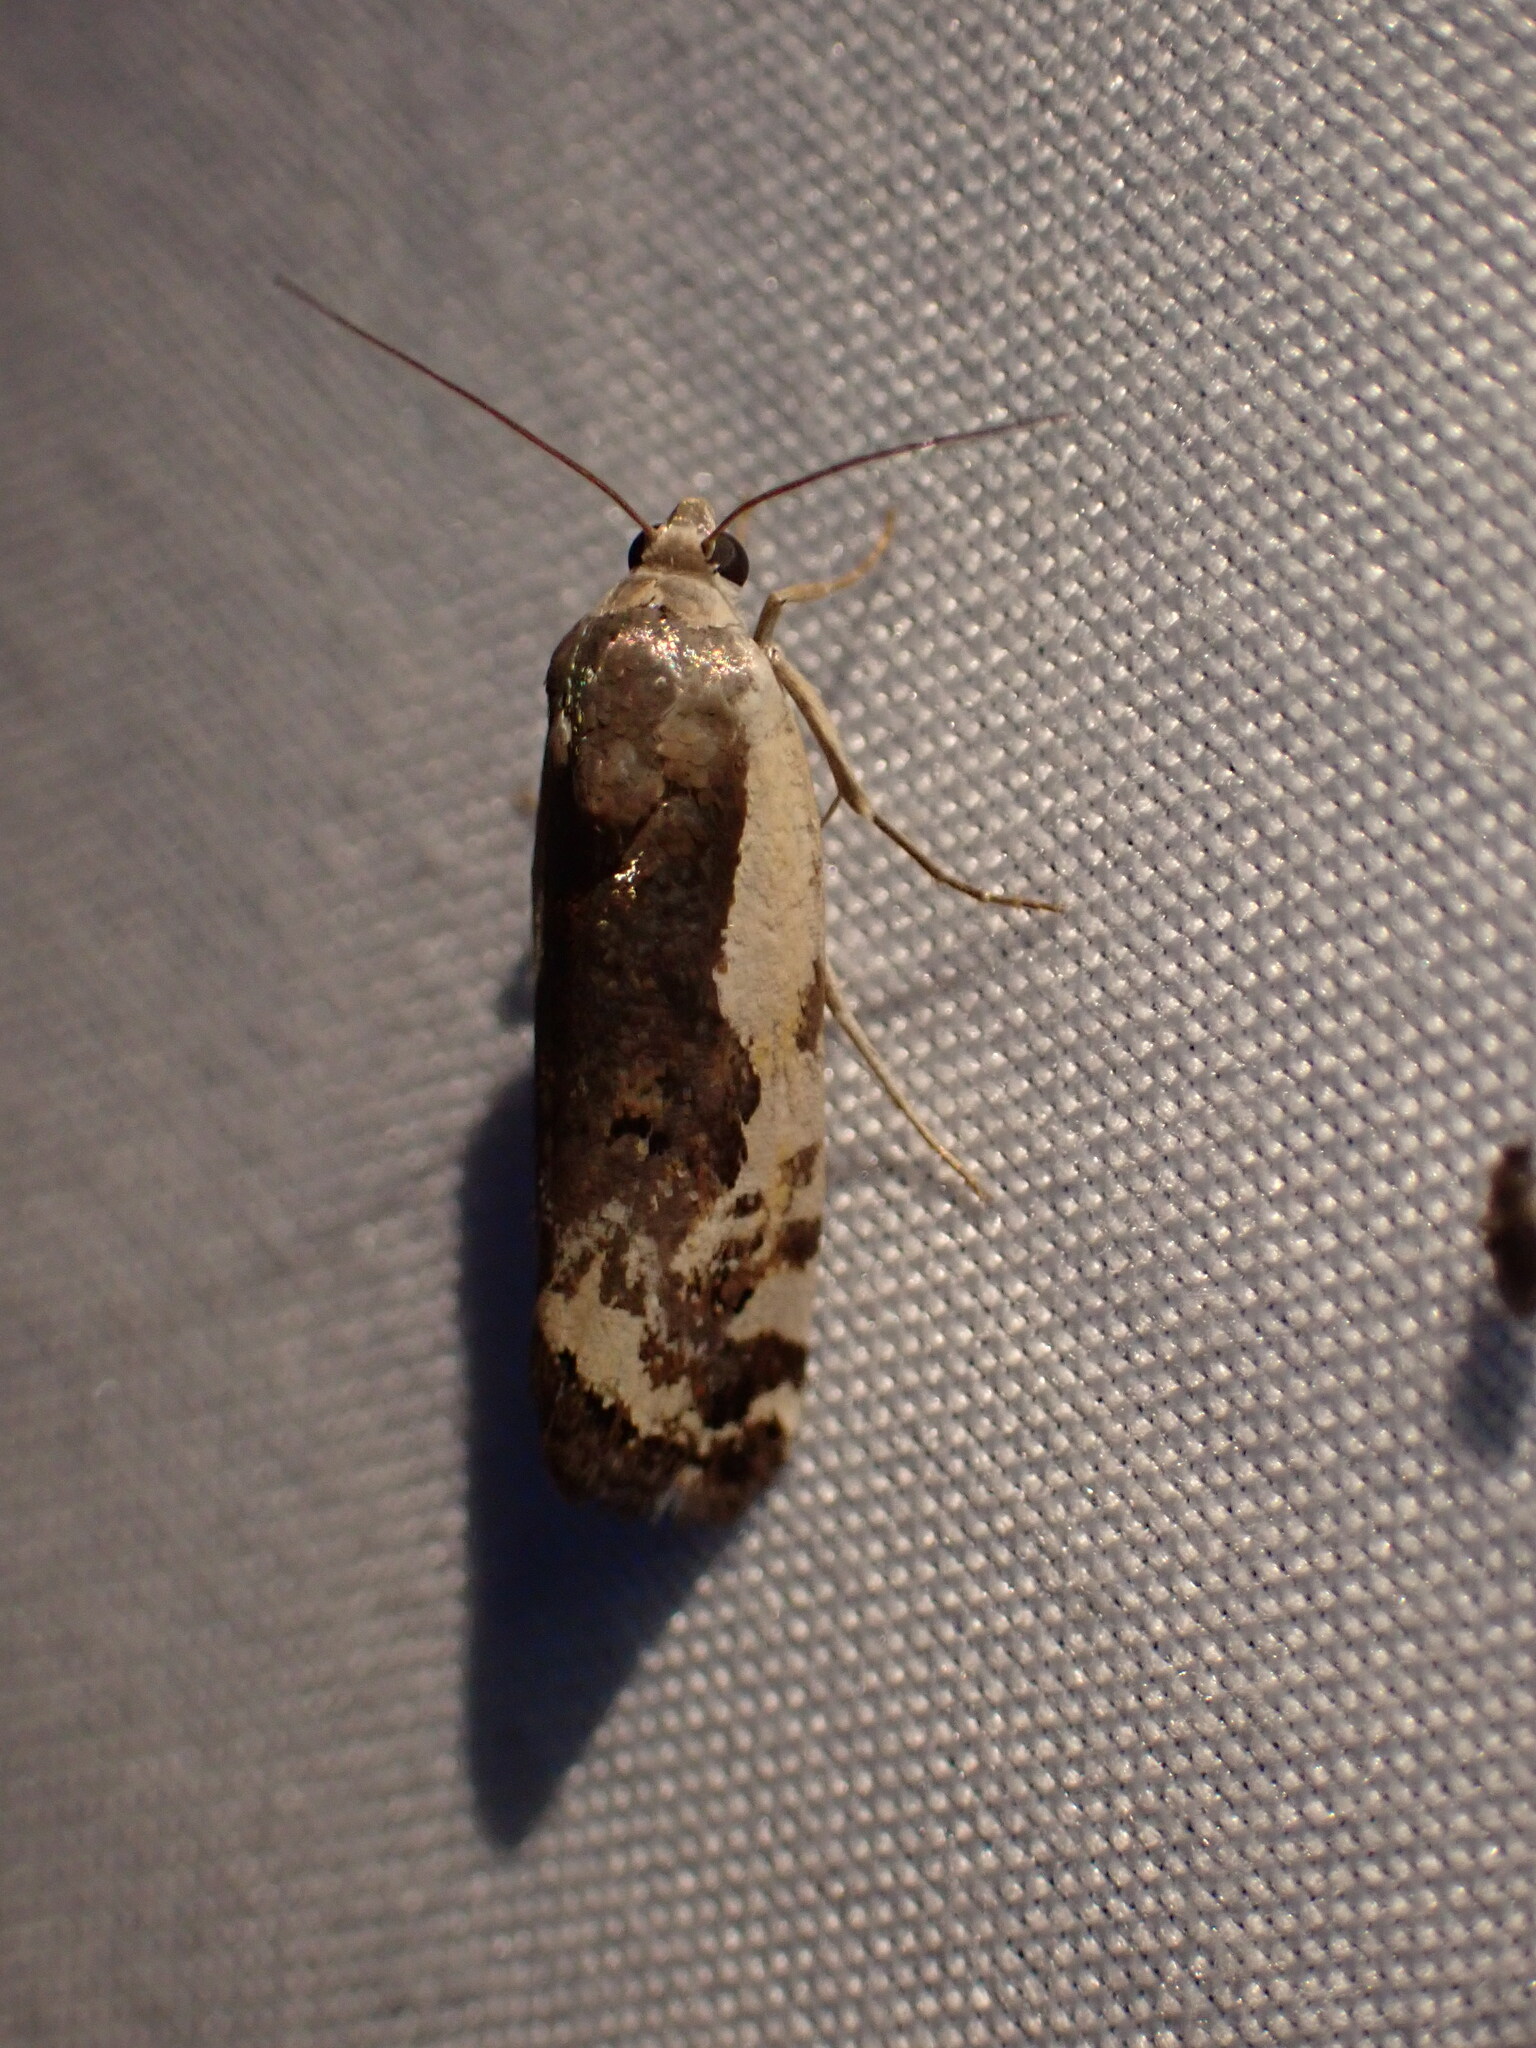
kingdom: Animalia
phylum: Arthropoda
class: Insecta
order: Lepidoptera
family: Noctuidae
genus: Acontia
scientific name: Acontia Tarache augustipennis
